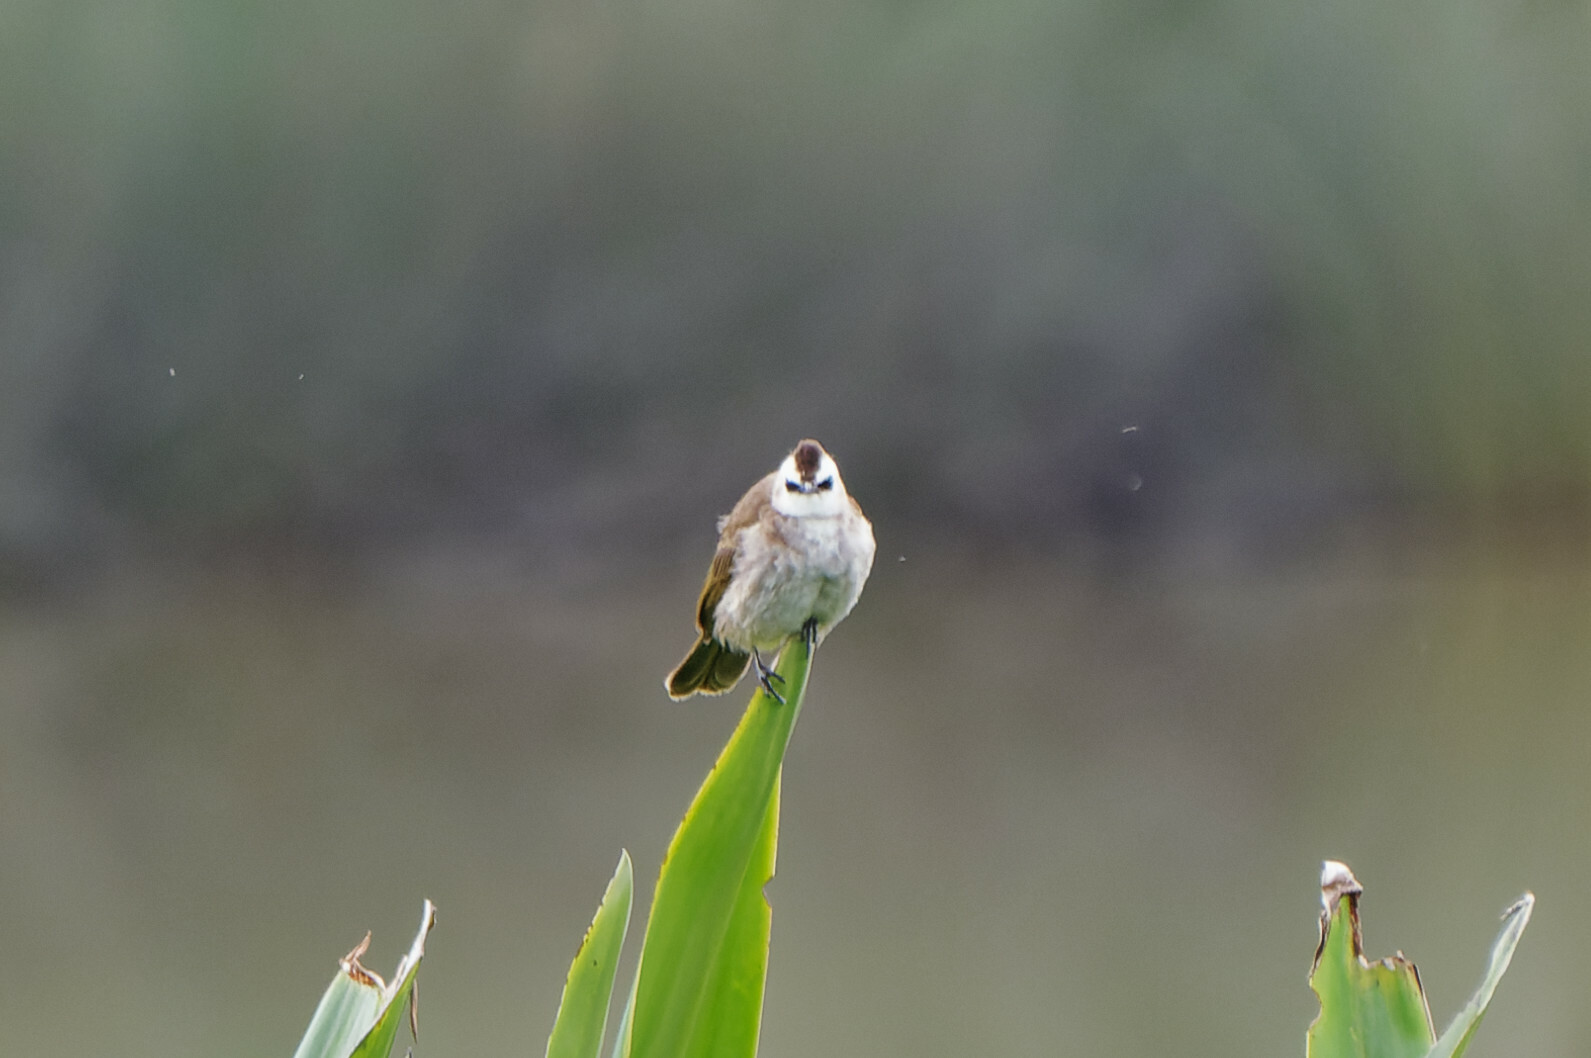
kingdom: Animalia
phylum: Chordata
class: Aves
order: Passeriformes
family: Pycnonotidae
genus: Pycnonotus
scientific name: Pycnonotus goiavier
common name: Yellow-vented bulbul
